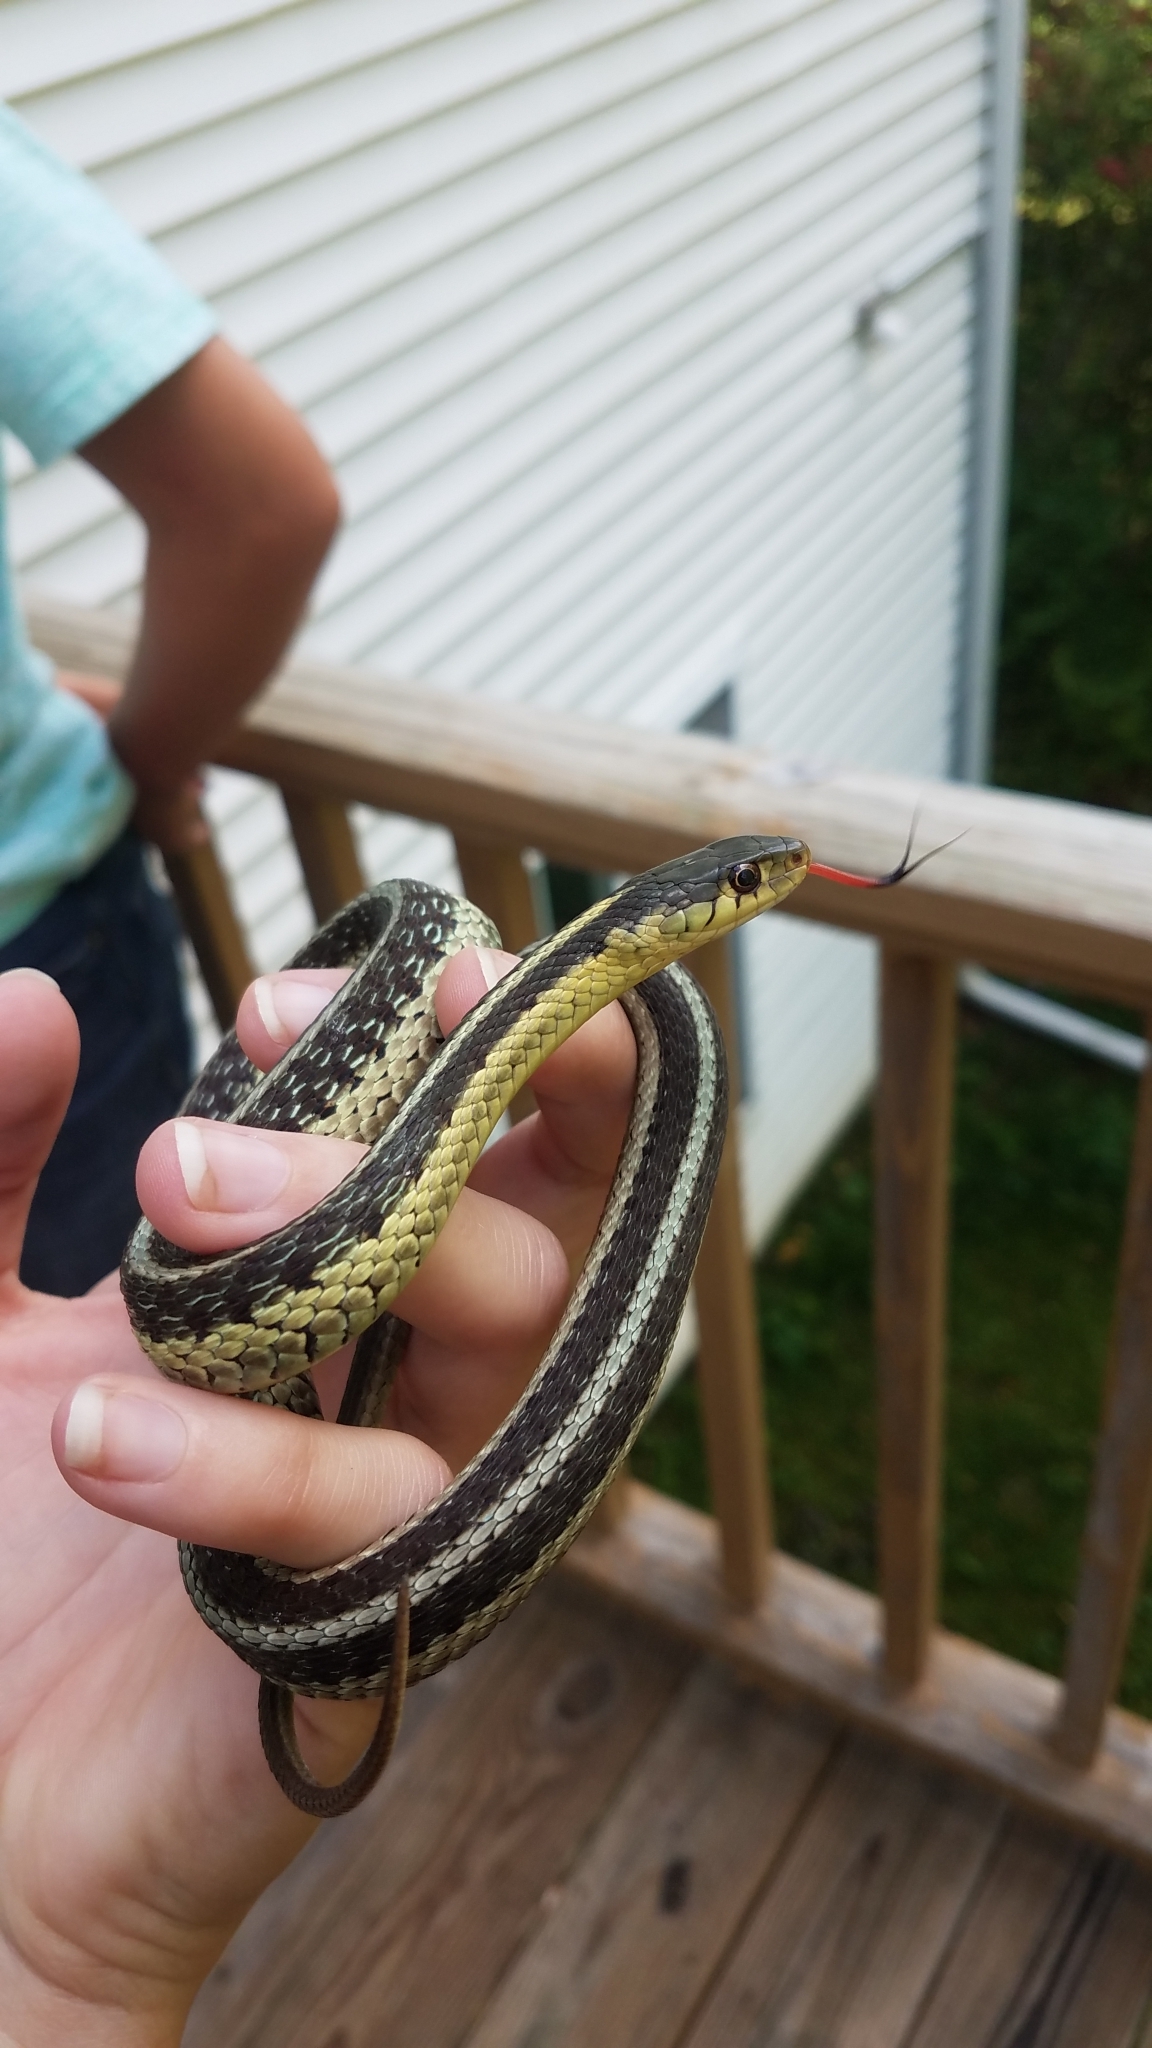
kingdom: Animalia
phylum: Chordata
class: Squamata
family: Colubridae
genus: Thamnophis
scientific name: Thamnophis sirtalis
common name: Common garter snake
